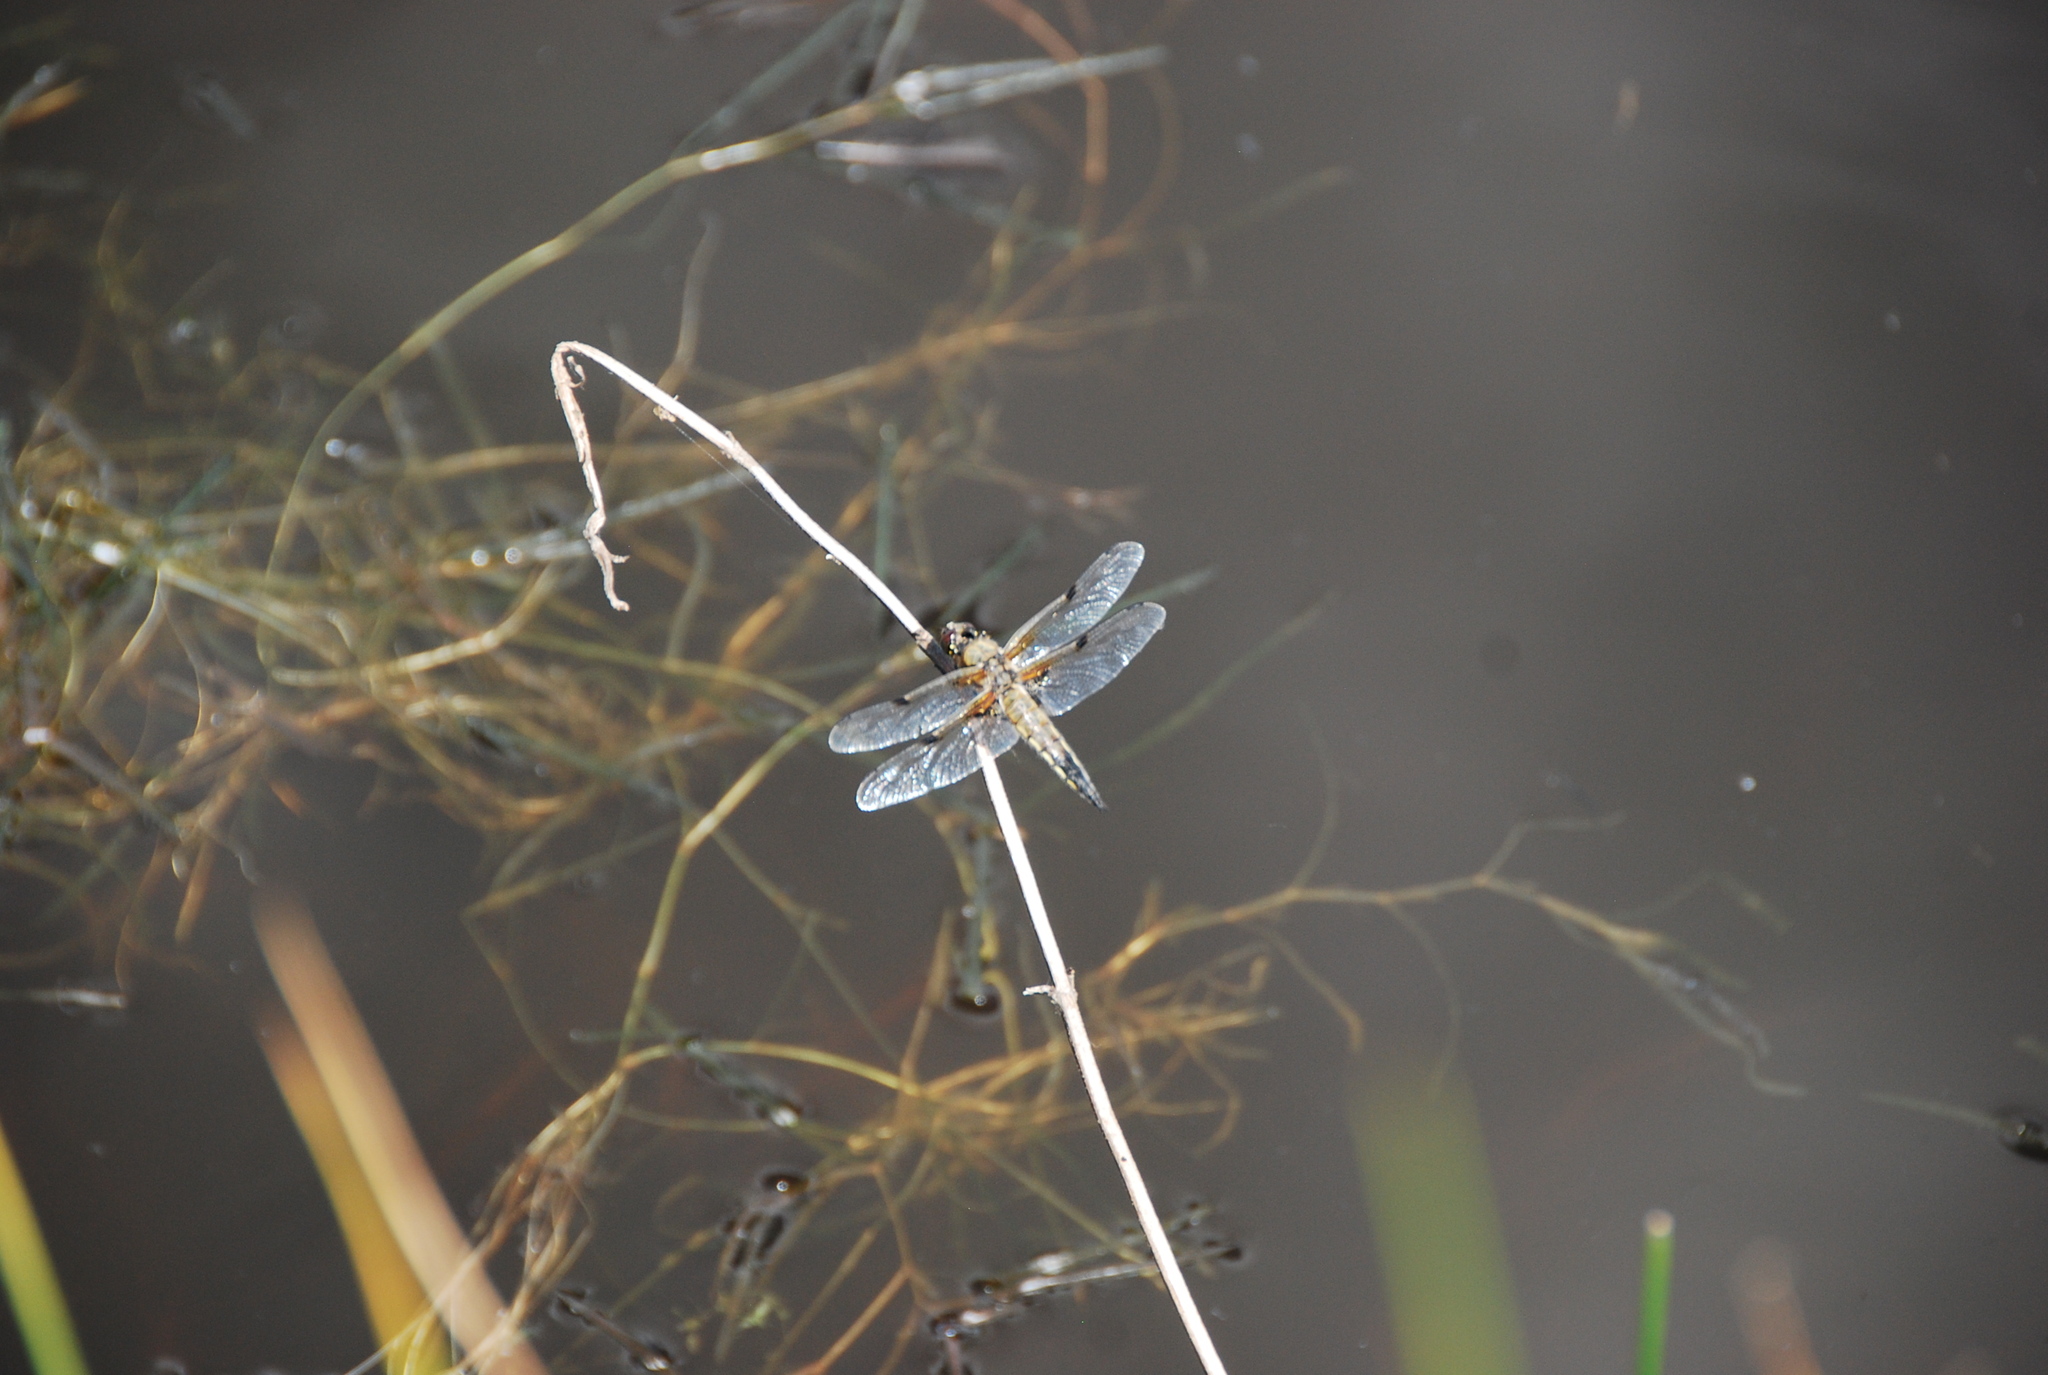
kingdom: Animalia
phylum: Arthropoda
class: Insecta
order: Odonata
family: Libellulidae
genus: Libellula
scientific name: Libellula quadrimaculata
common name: Four-spotted chaser
